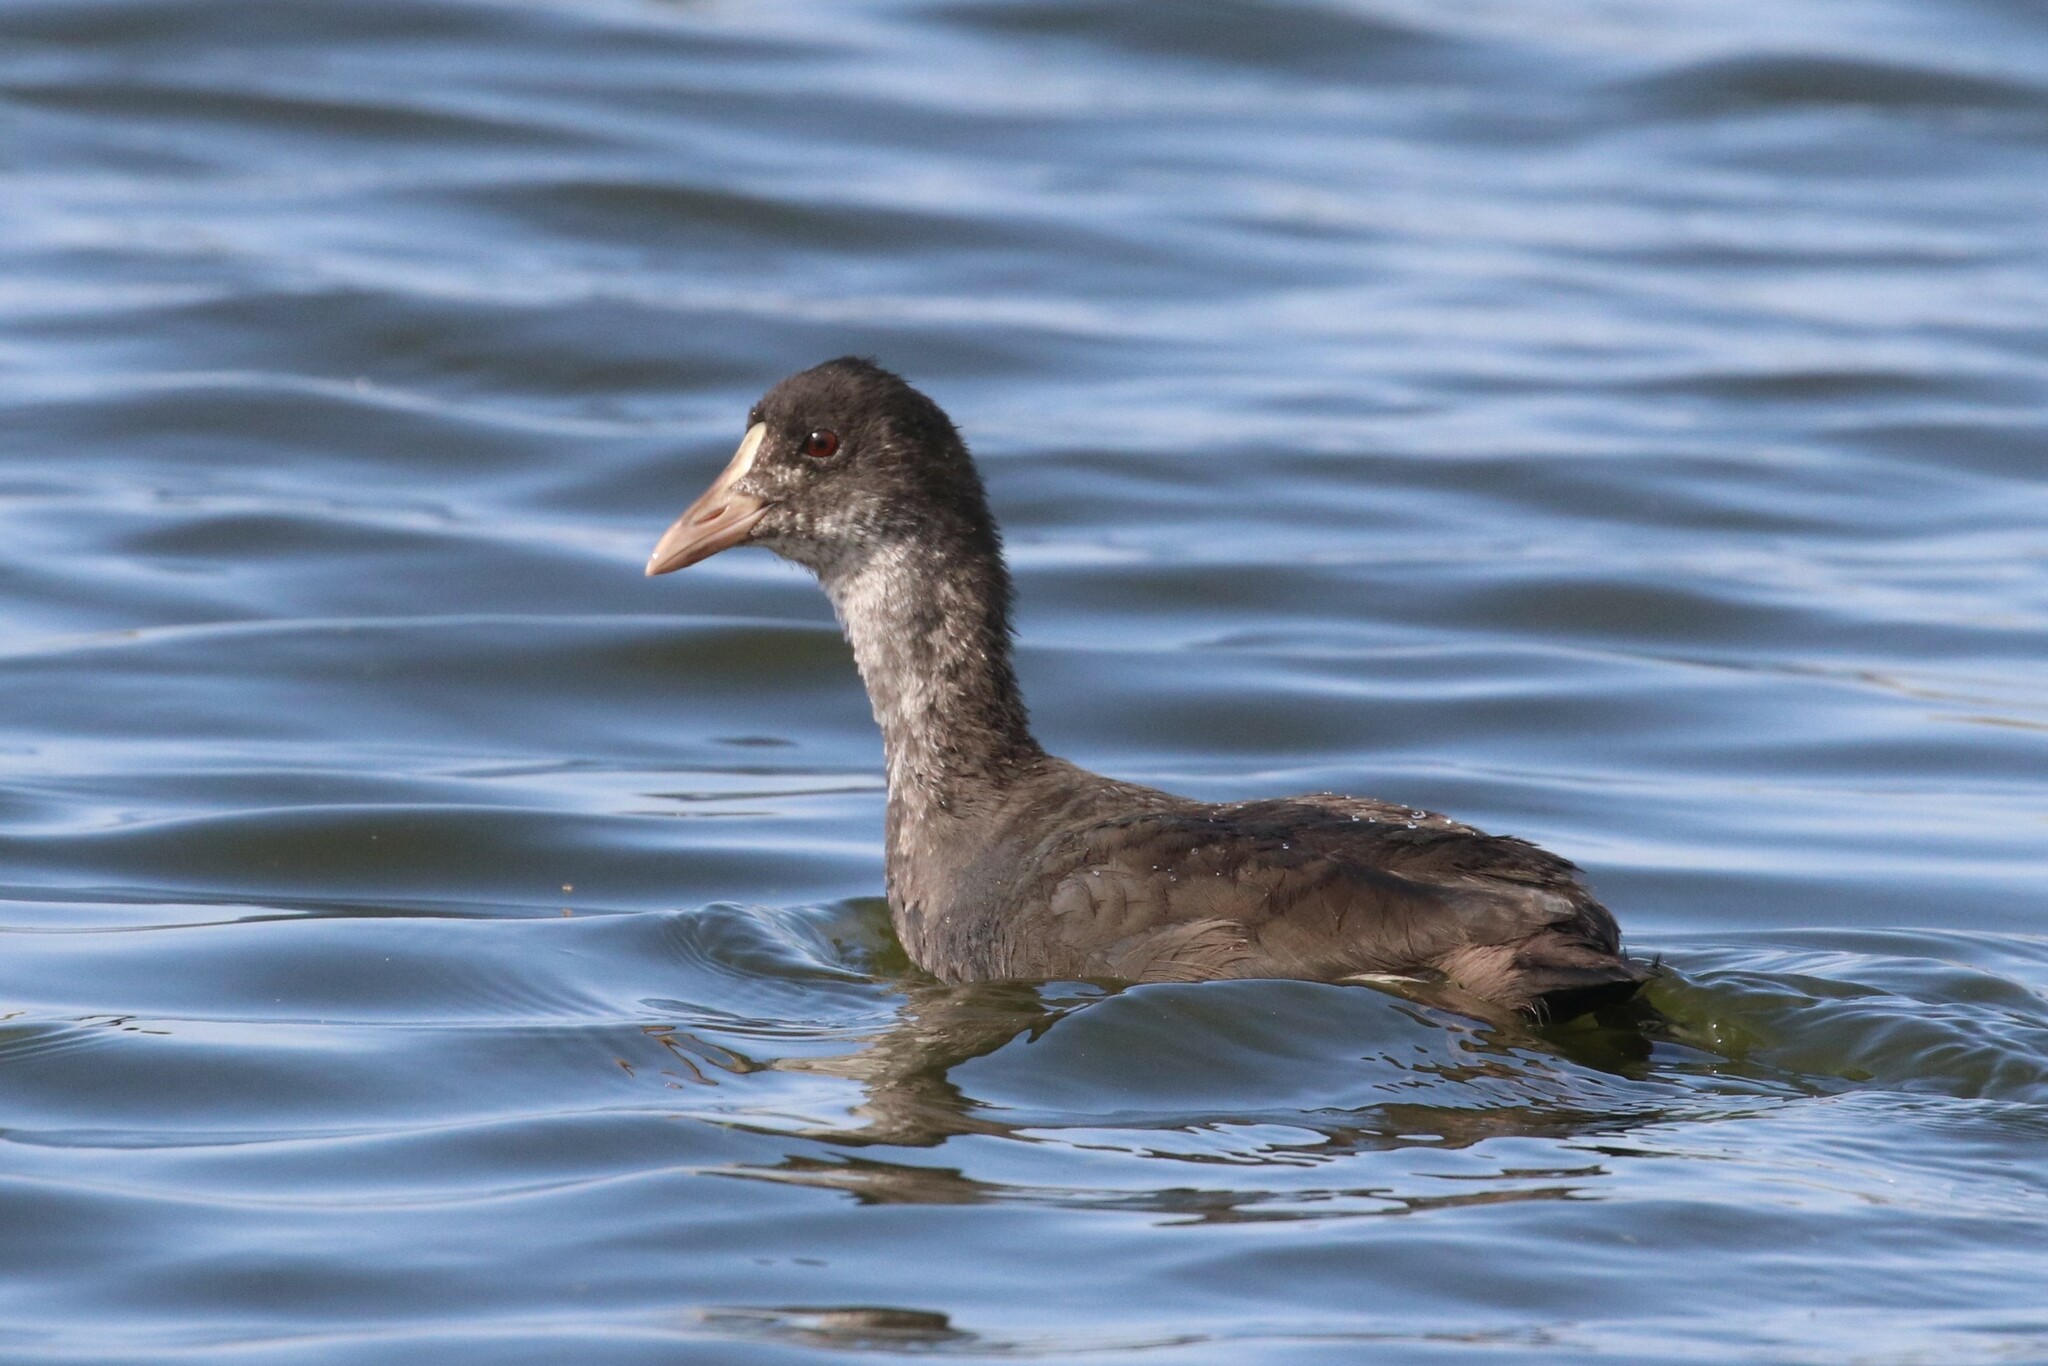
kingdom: Animalia
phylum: Chordata
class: Aves
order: Gruiformes
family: Rallidae
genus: Fulica
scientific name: Fulica atra
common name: Eurasian coot
